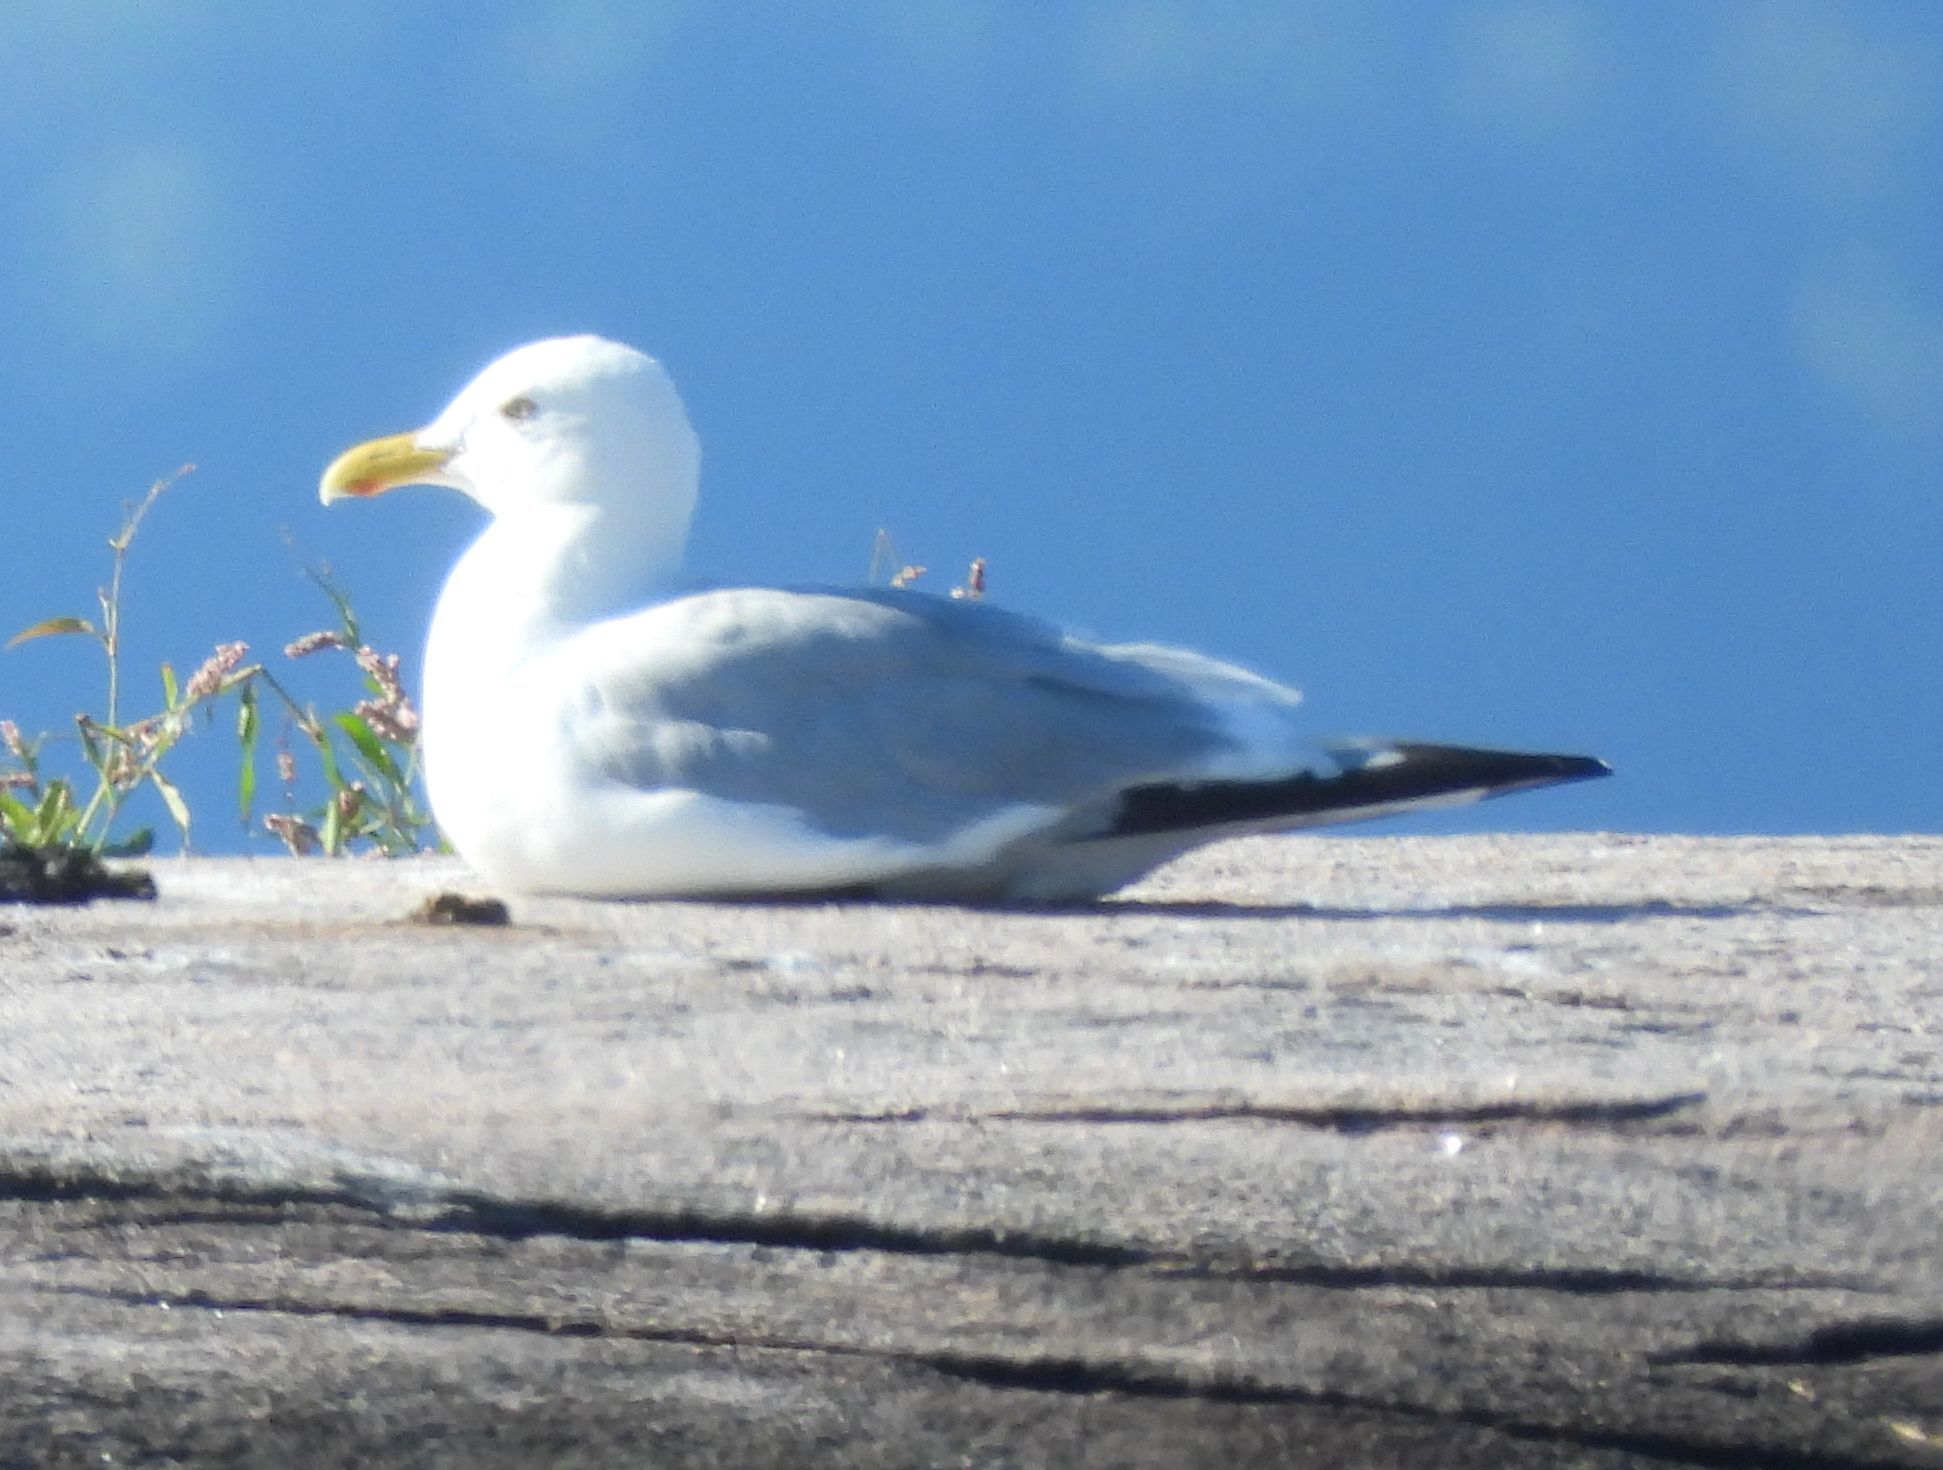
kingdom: Animalia
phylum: Chordata
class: Aves
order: Charadriiformes
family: Laridae
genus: Larus
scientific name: Larus argentatus
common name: Herring gull
